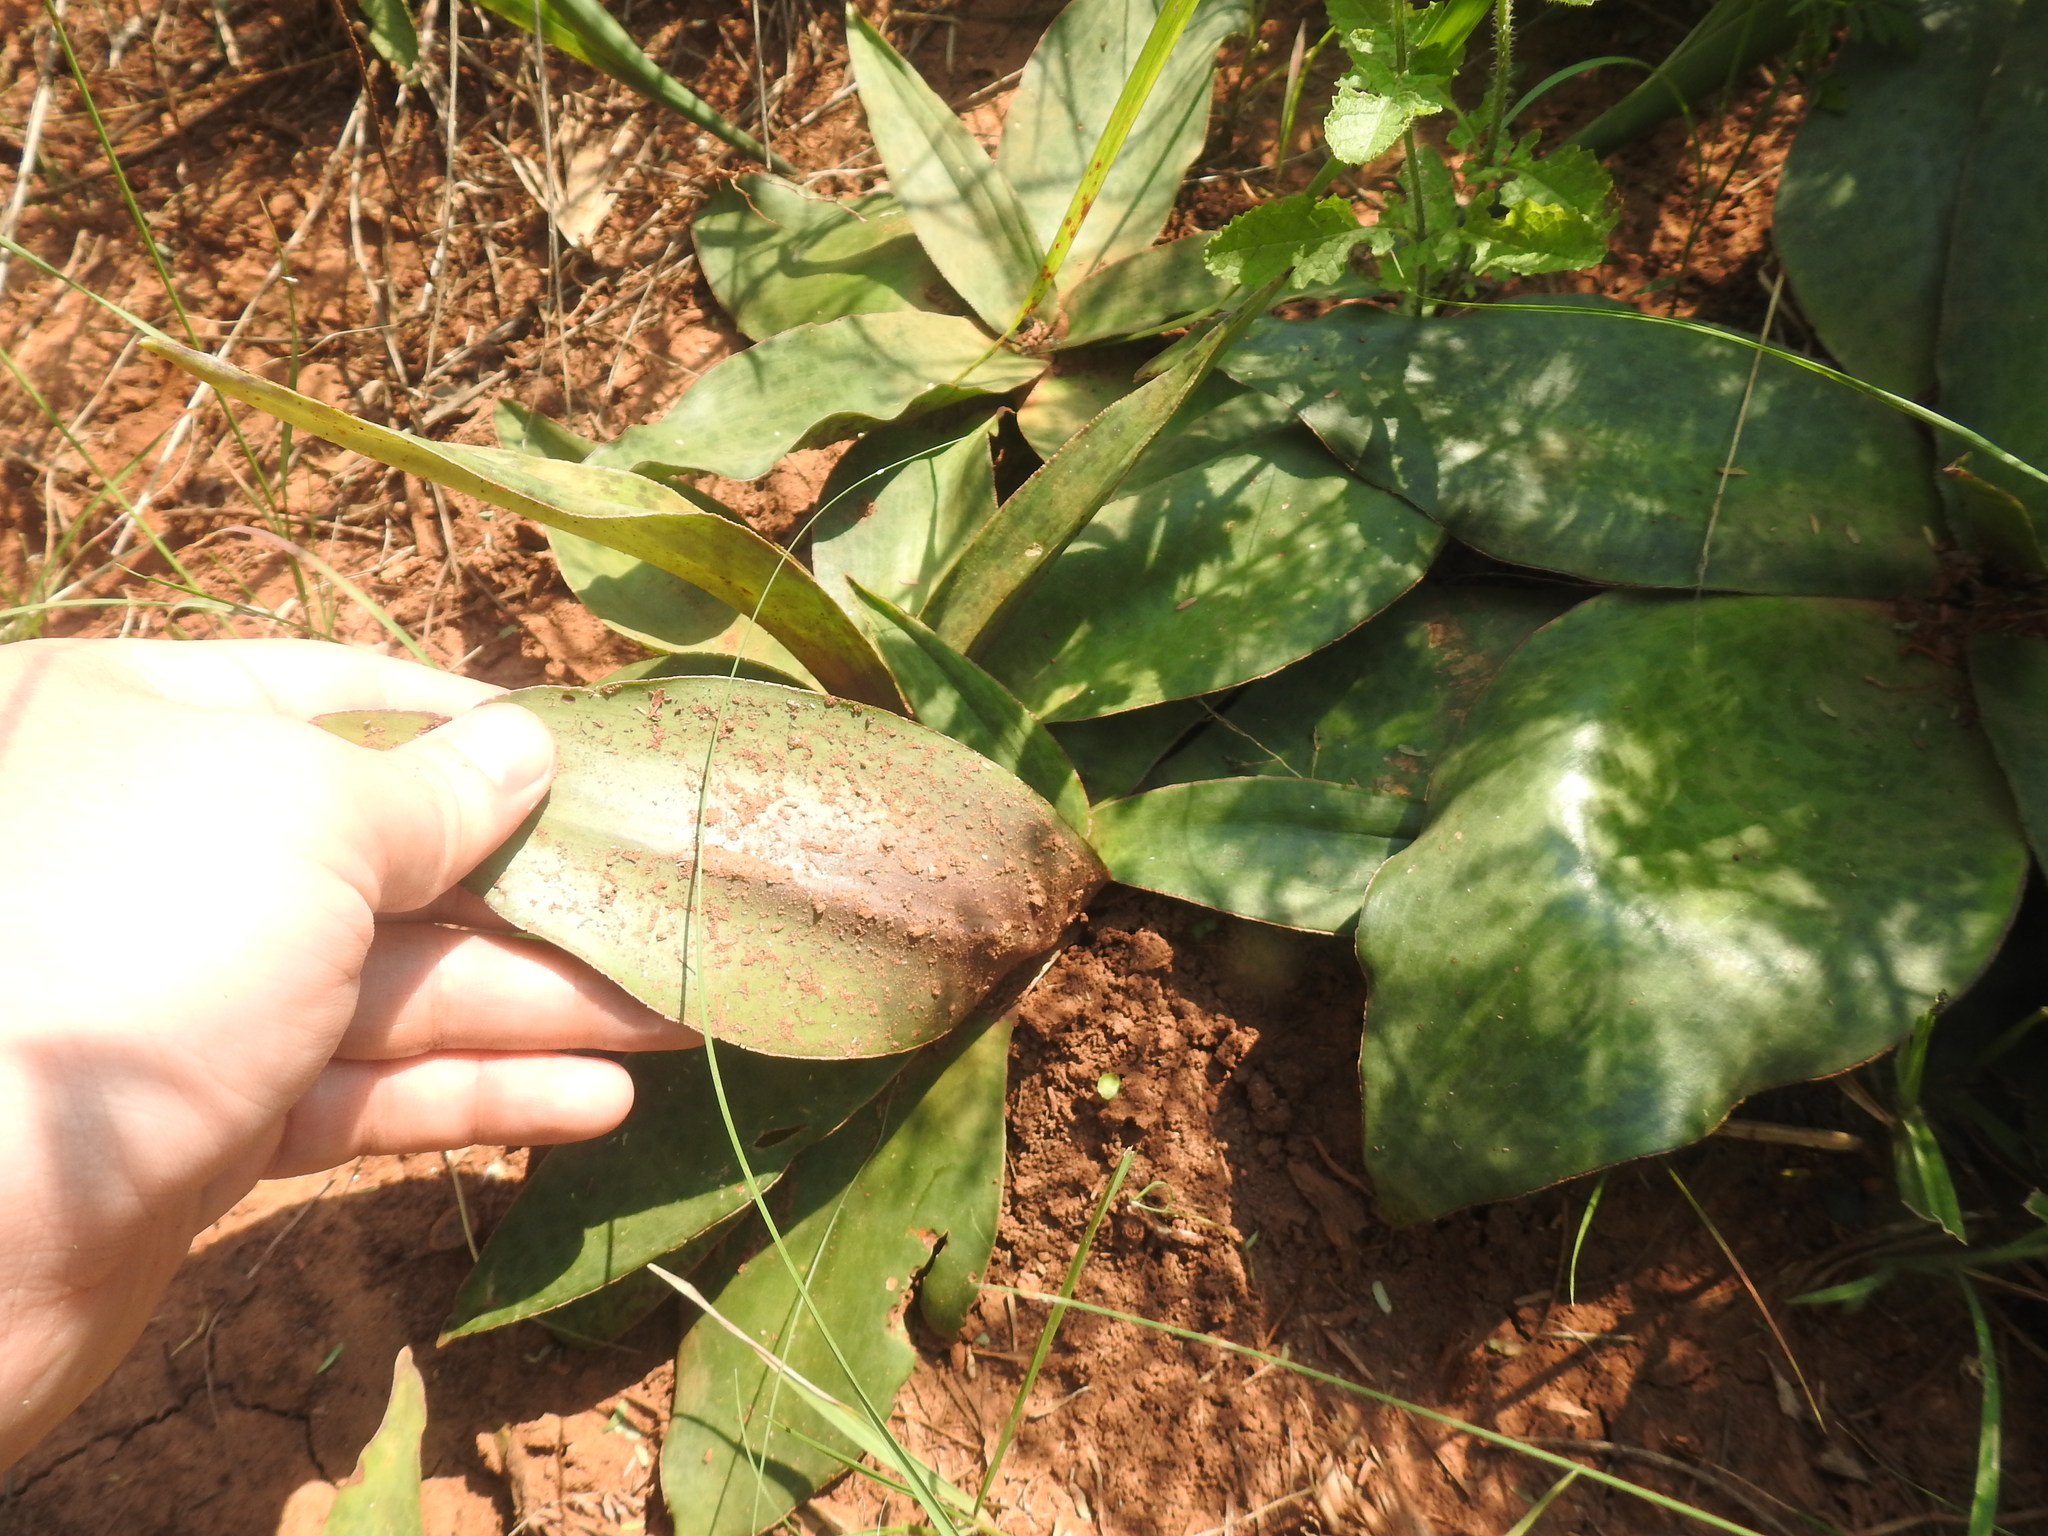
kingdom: Plantae
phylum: Tracheophyta
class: Liliopsida
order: Asparagales
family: Asparagaceae
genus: Ledebouria
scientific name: Ledebouria ovatifolia
